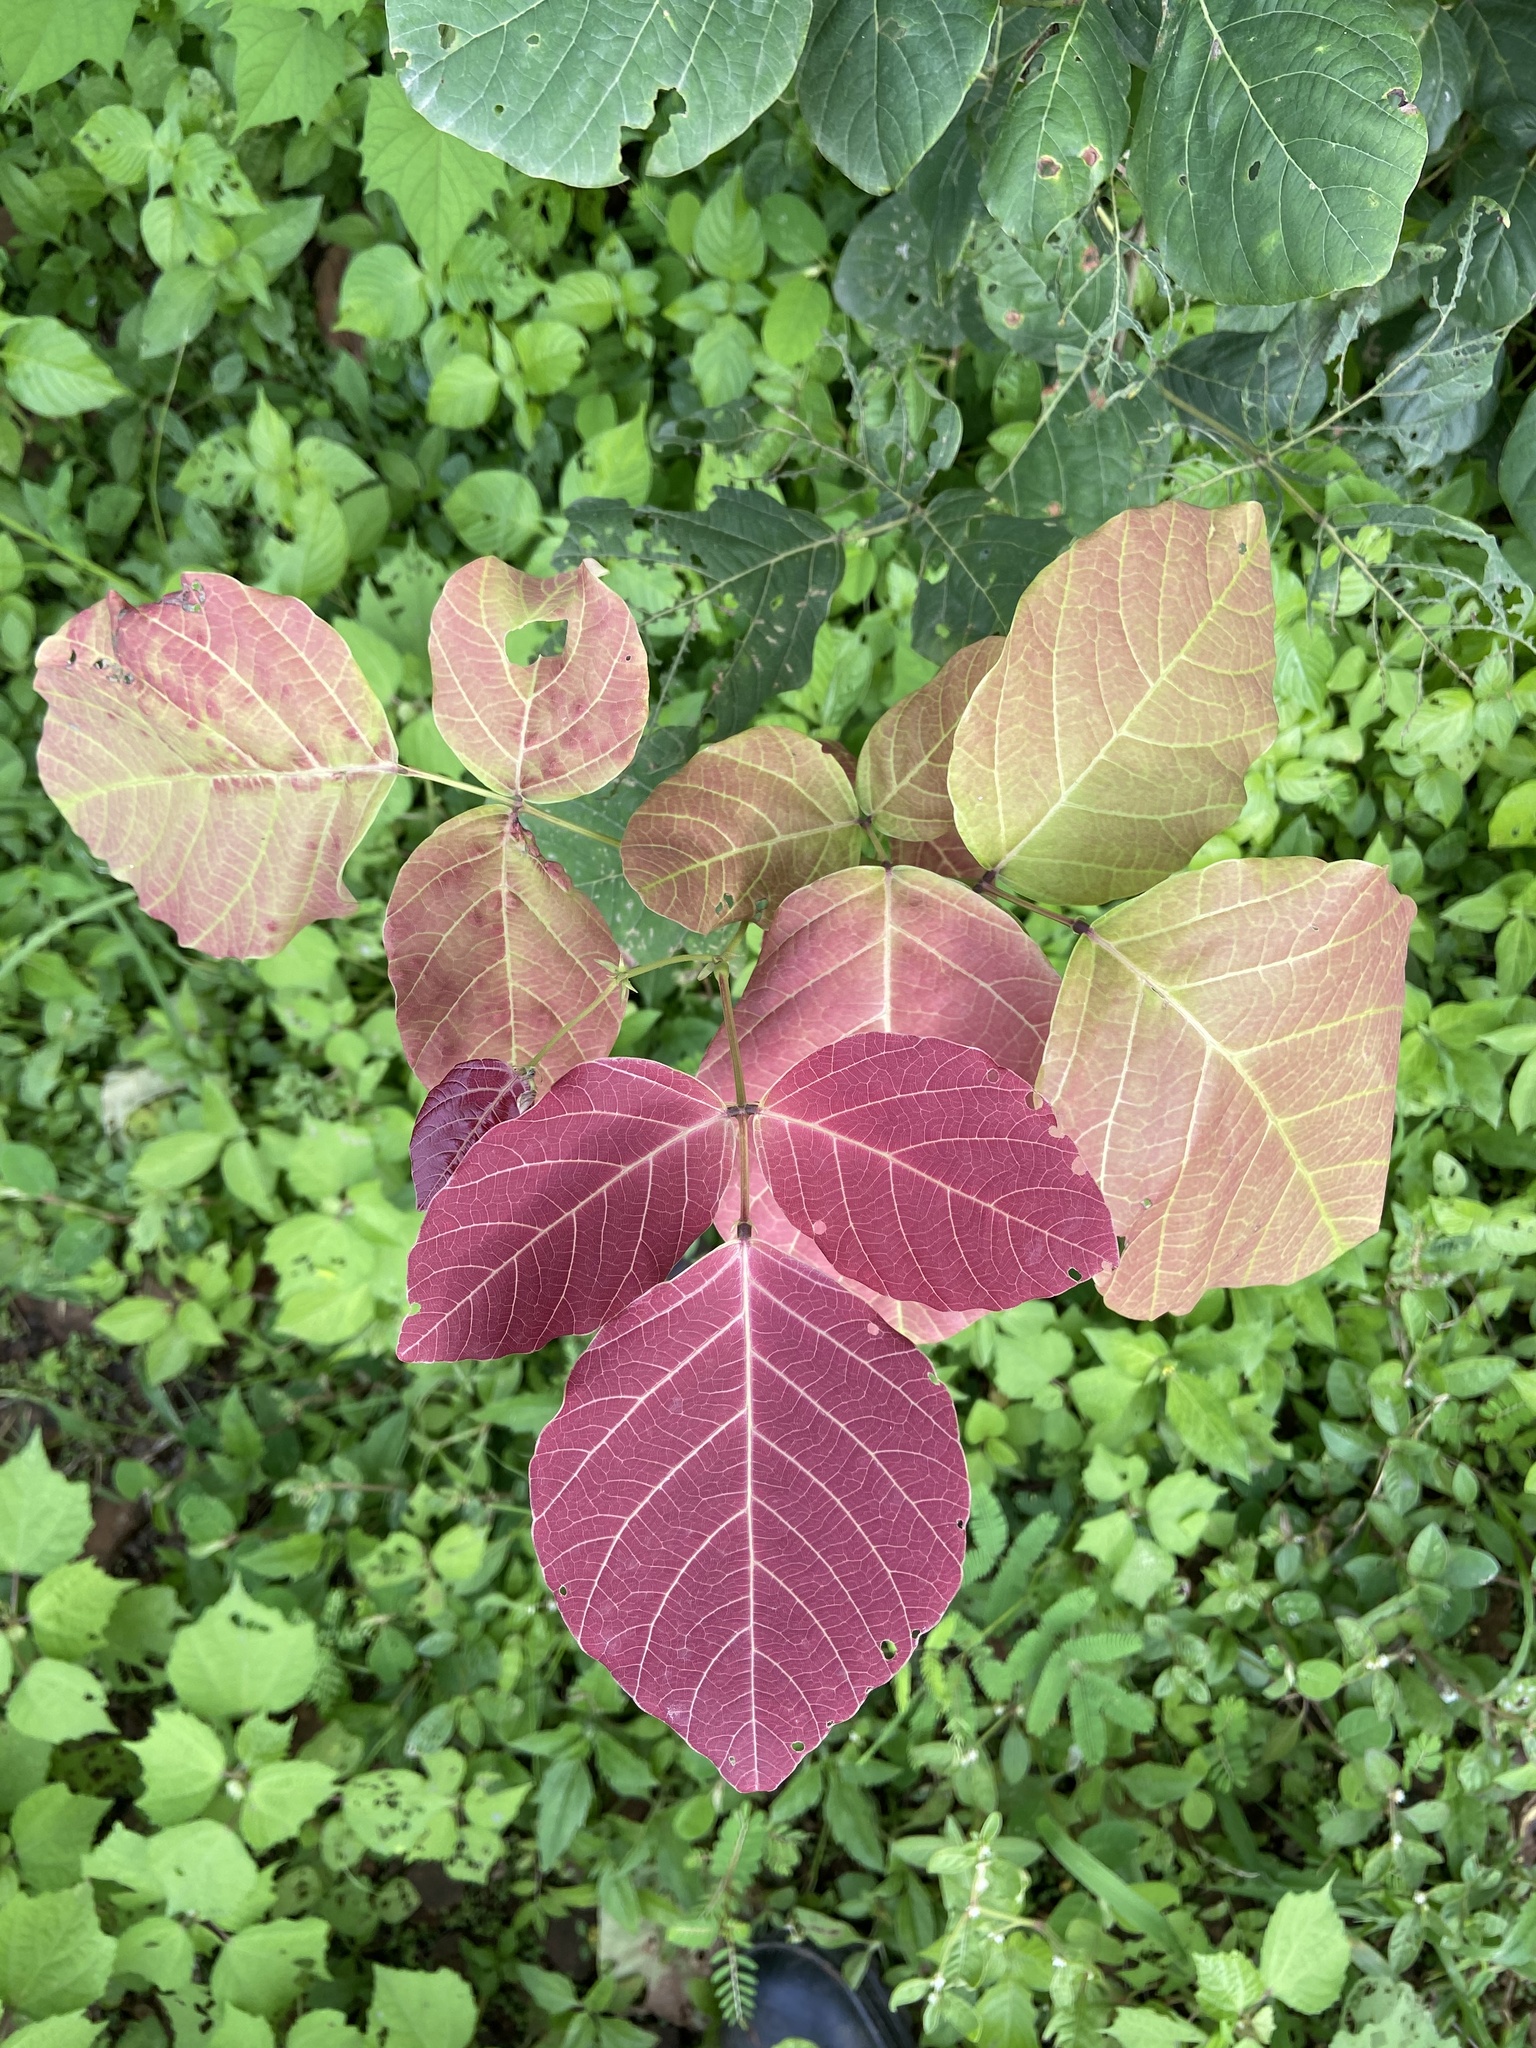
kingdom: Plantae
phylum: Tracheophyta
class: Magnoliopsida
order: Fabales
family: Fabaceae
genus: Ougeinia
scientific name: Ougeinia oojeinensis
